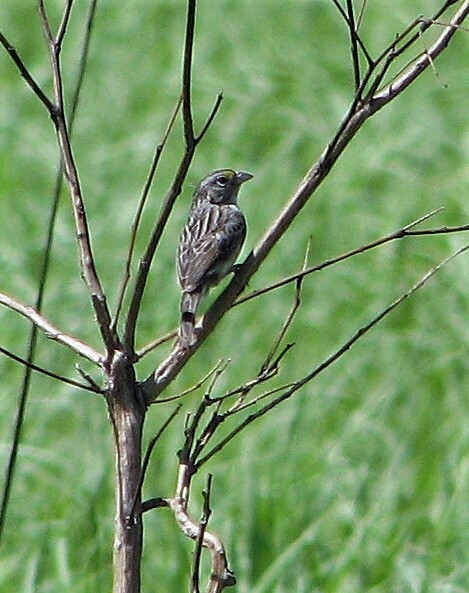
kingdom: Animalia
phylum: Chordata
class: Aves
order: Passeriformes
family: Passerellidae
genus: Ammodramus
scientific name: Ammodramus humeralis
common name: Grassland sparrow
